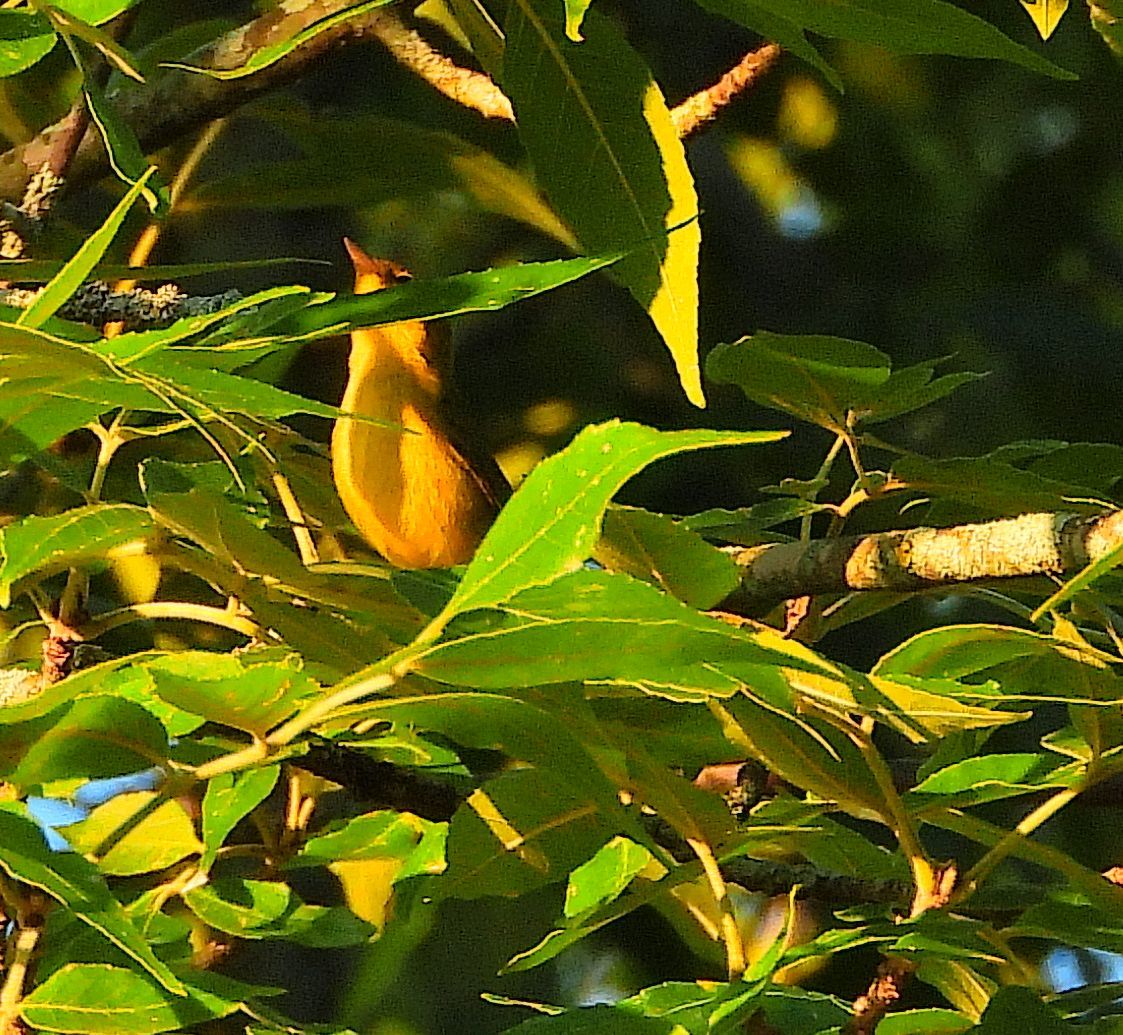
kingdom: Animalia
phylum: Chordata
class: Aves
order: Passeriformes
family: Parulidae
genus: Cardellina
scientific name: Cardellina pusilla
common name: Wilson's warbler
